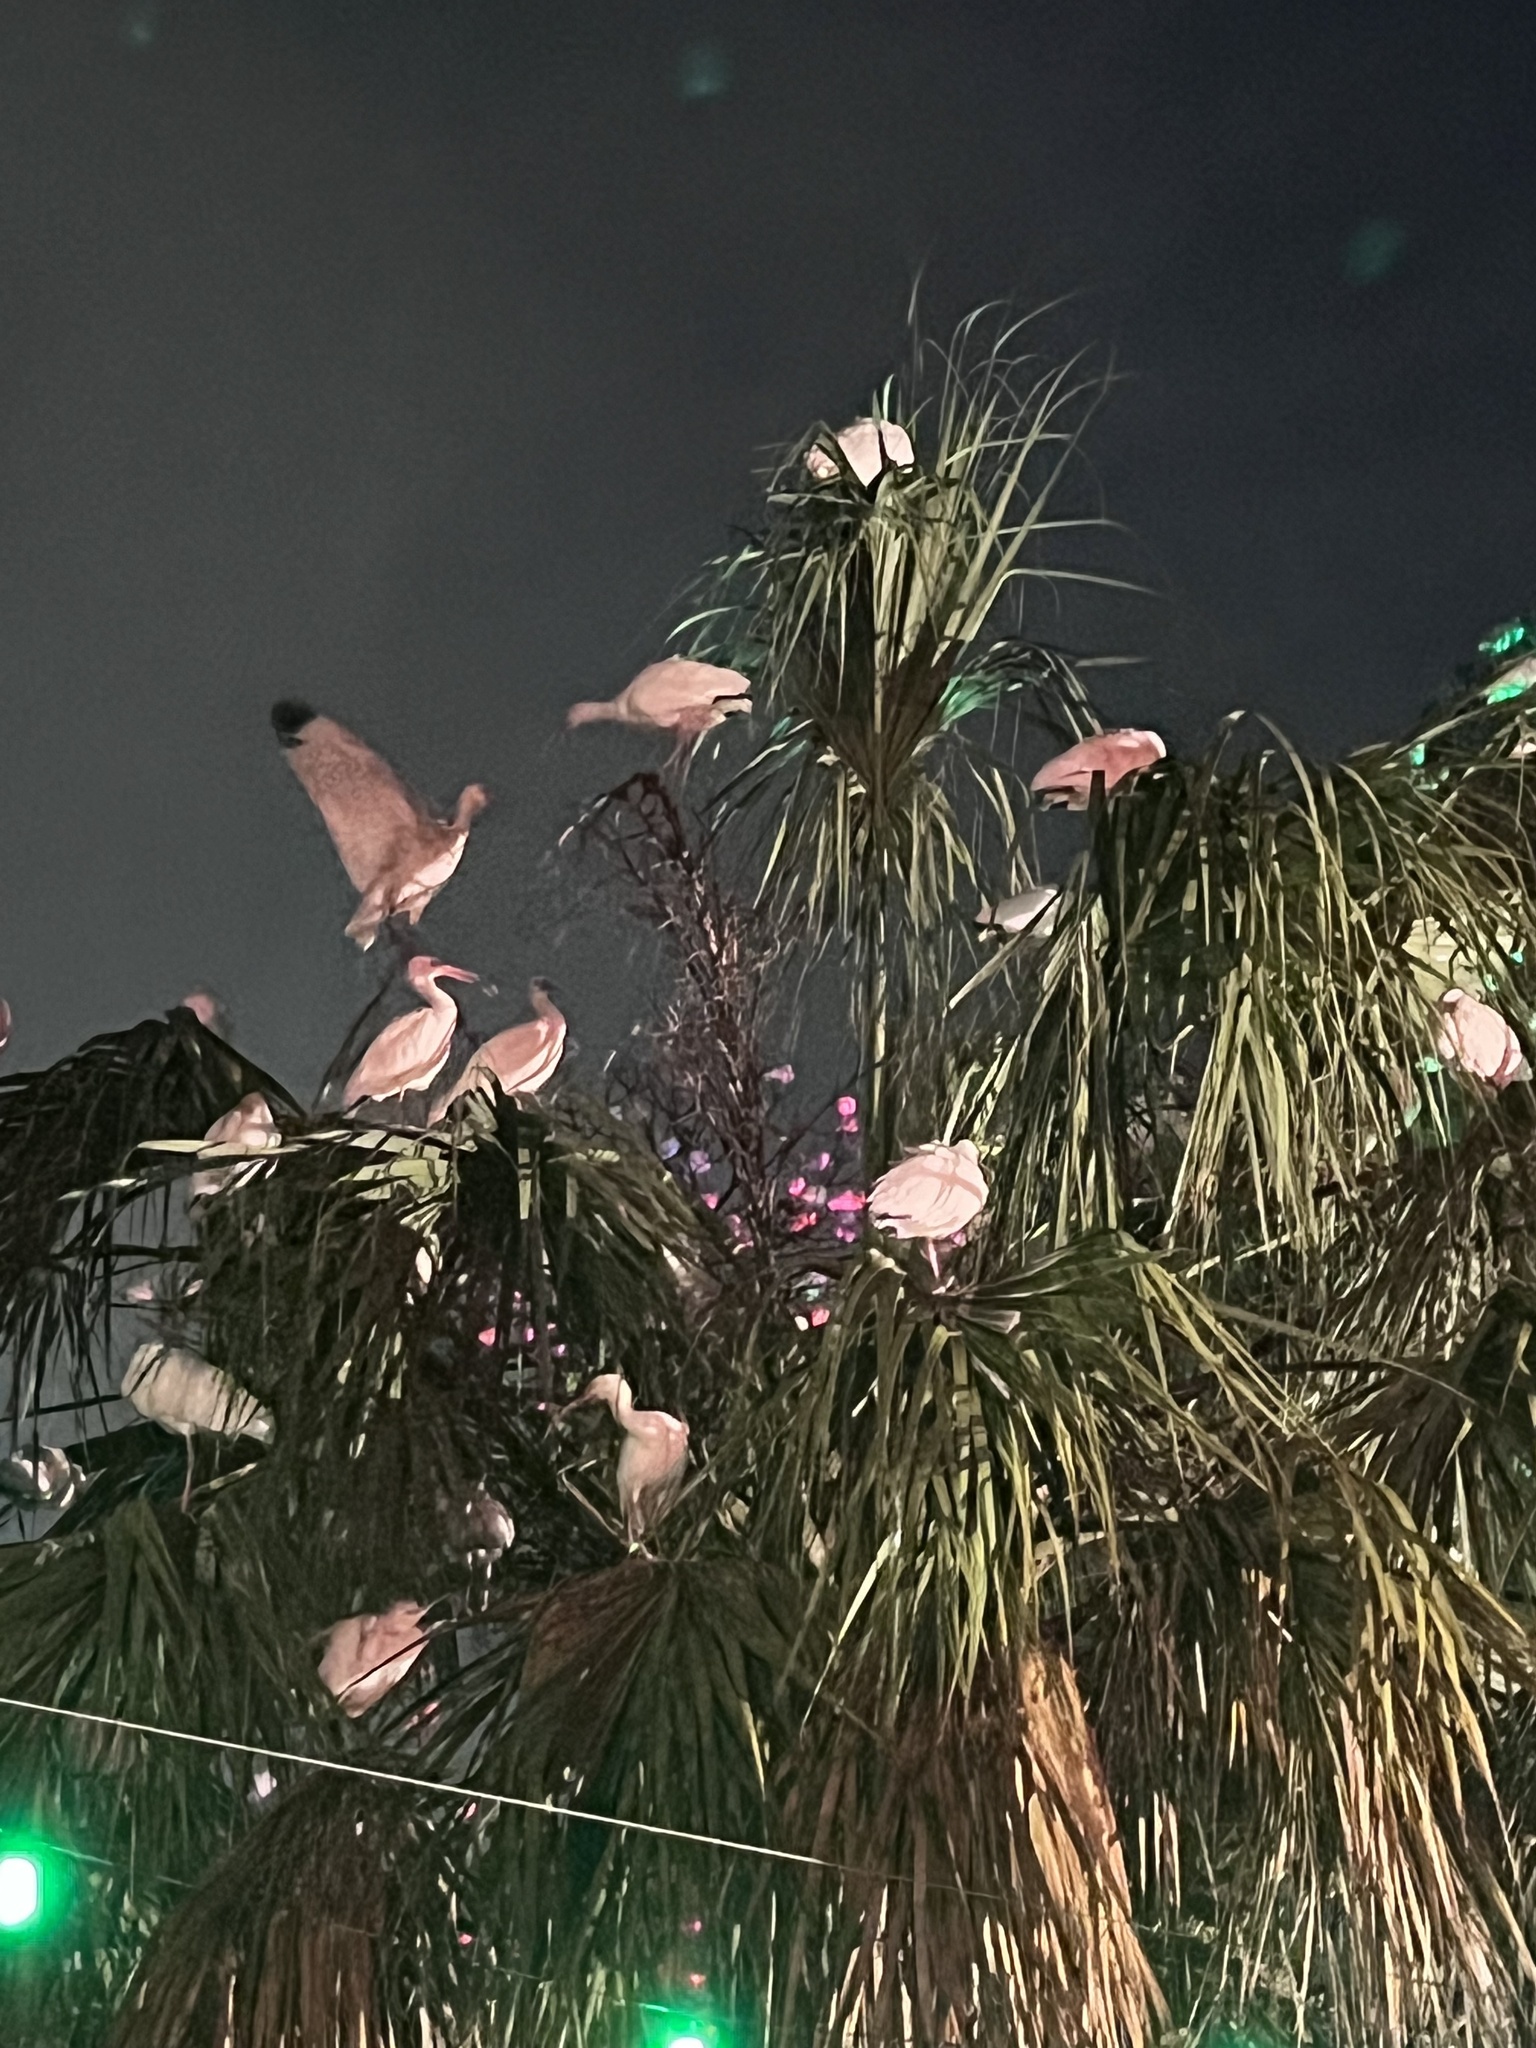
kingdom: Animalia
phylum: Chordata
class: Aves
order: Pelecaniformes
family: Threskiornithidae
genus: Eudocimus
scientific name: Eudocimus albus
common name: White ibis
